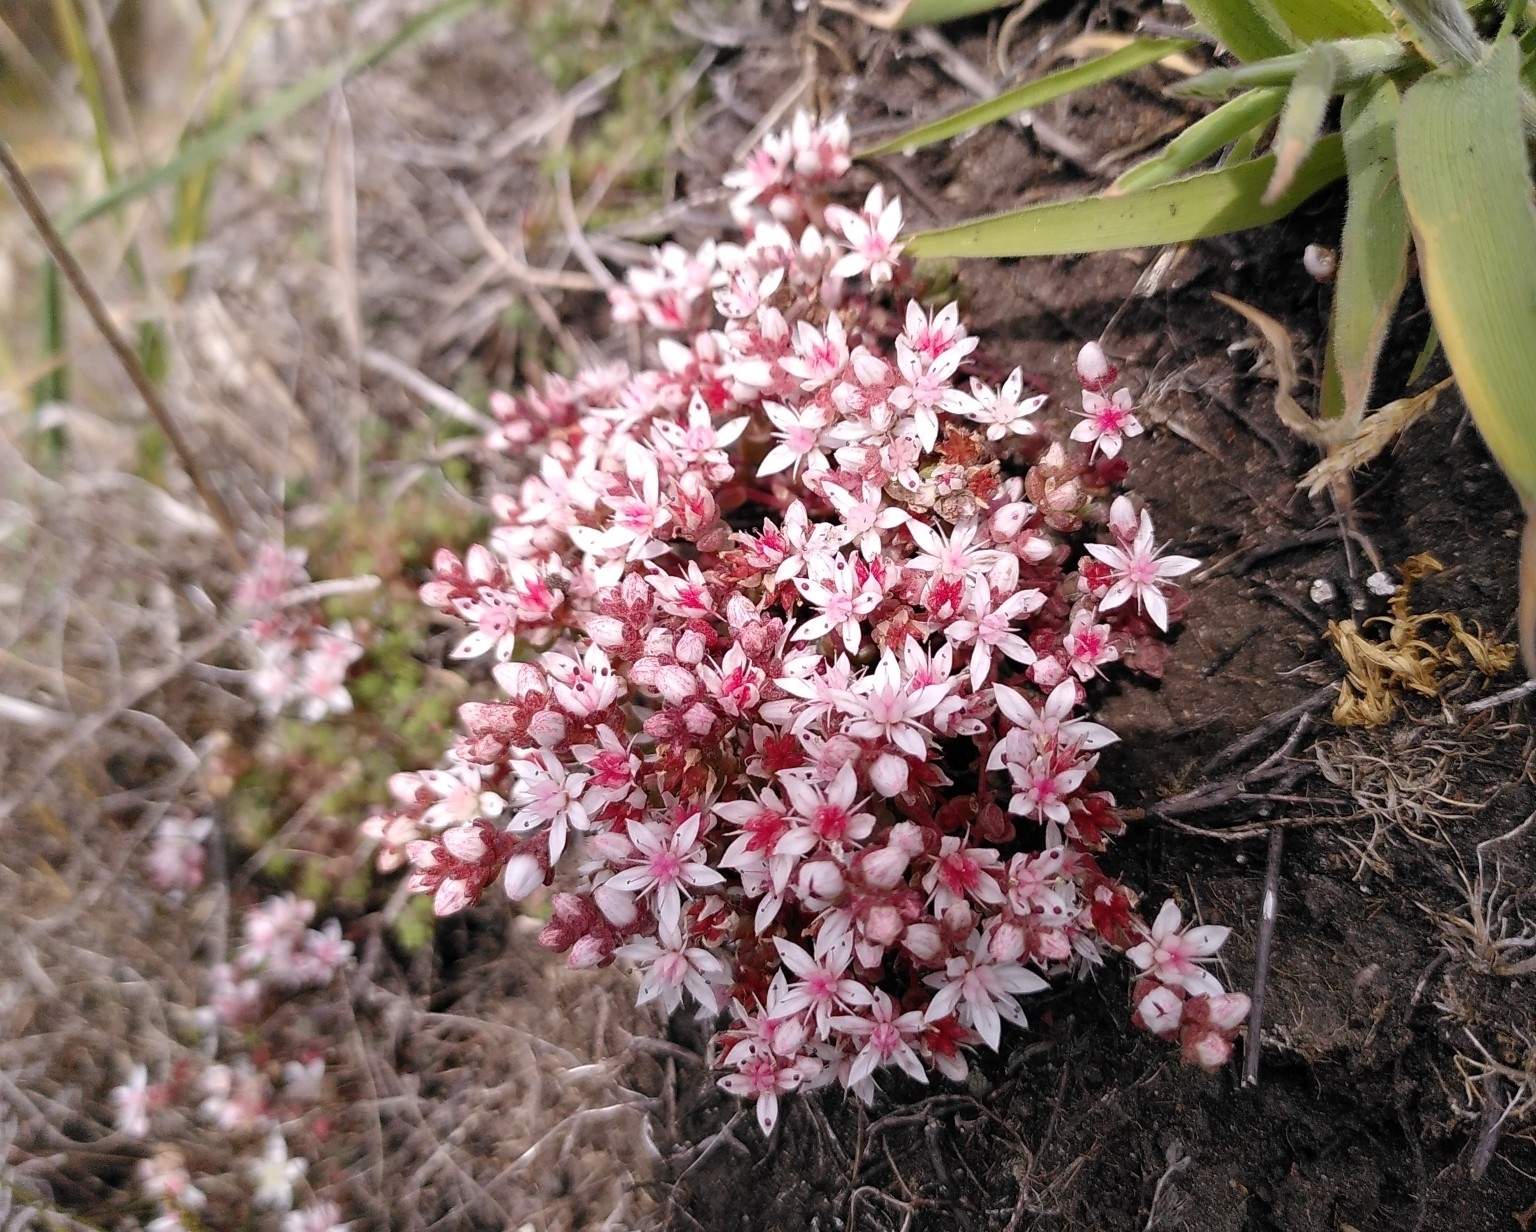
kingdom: Plantae
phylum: Tracheophyta
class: Magnoliopsida
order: Saxifragales
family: Crassulaceae
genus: Sedum
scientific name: Sedum anglicum
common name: English stonecrop
